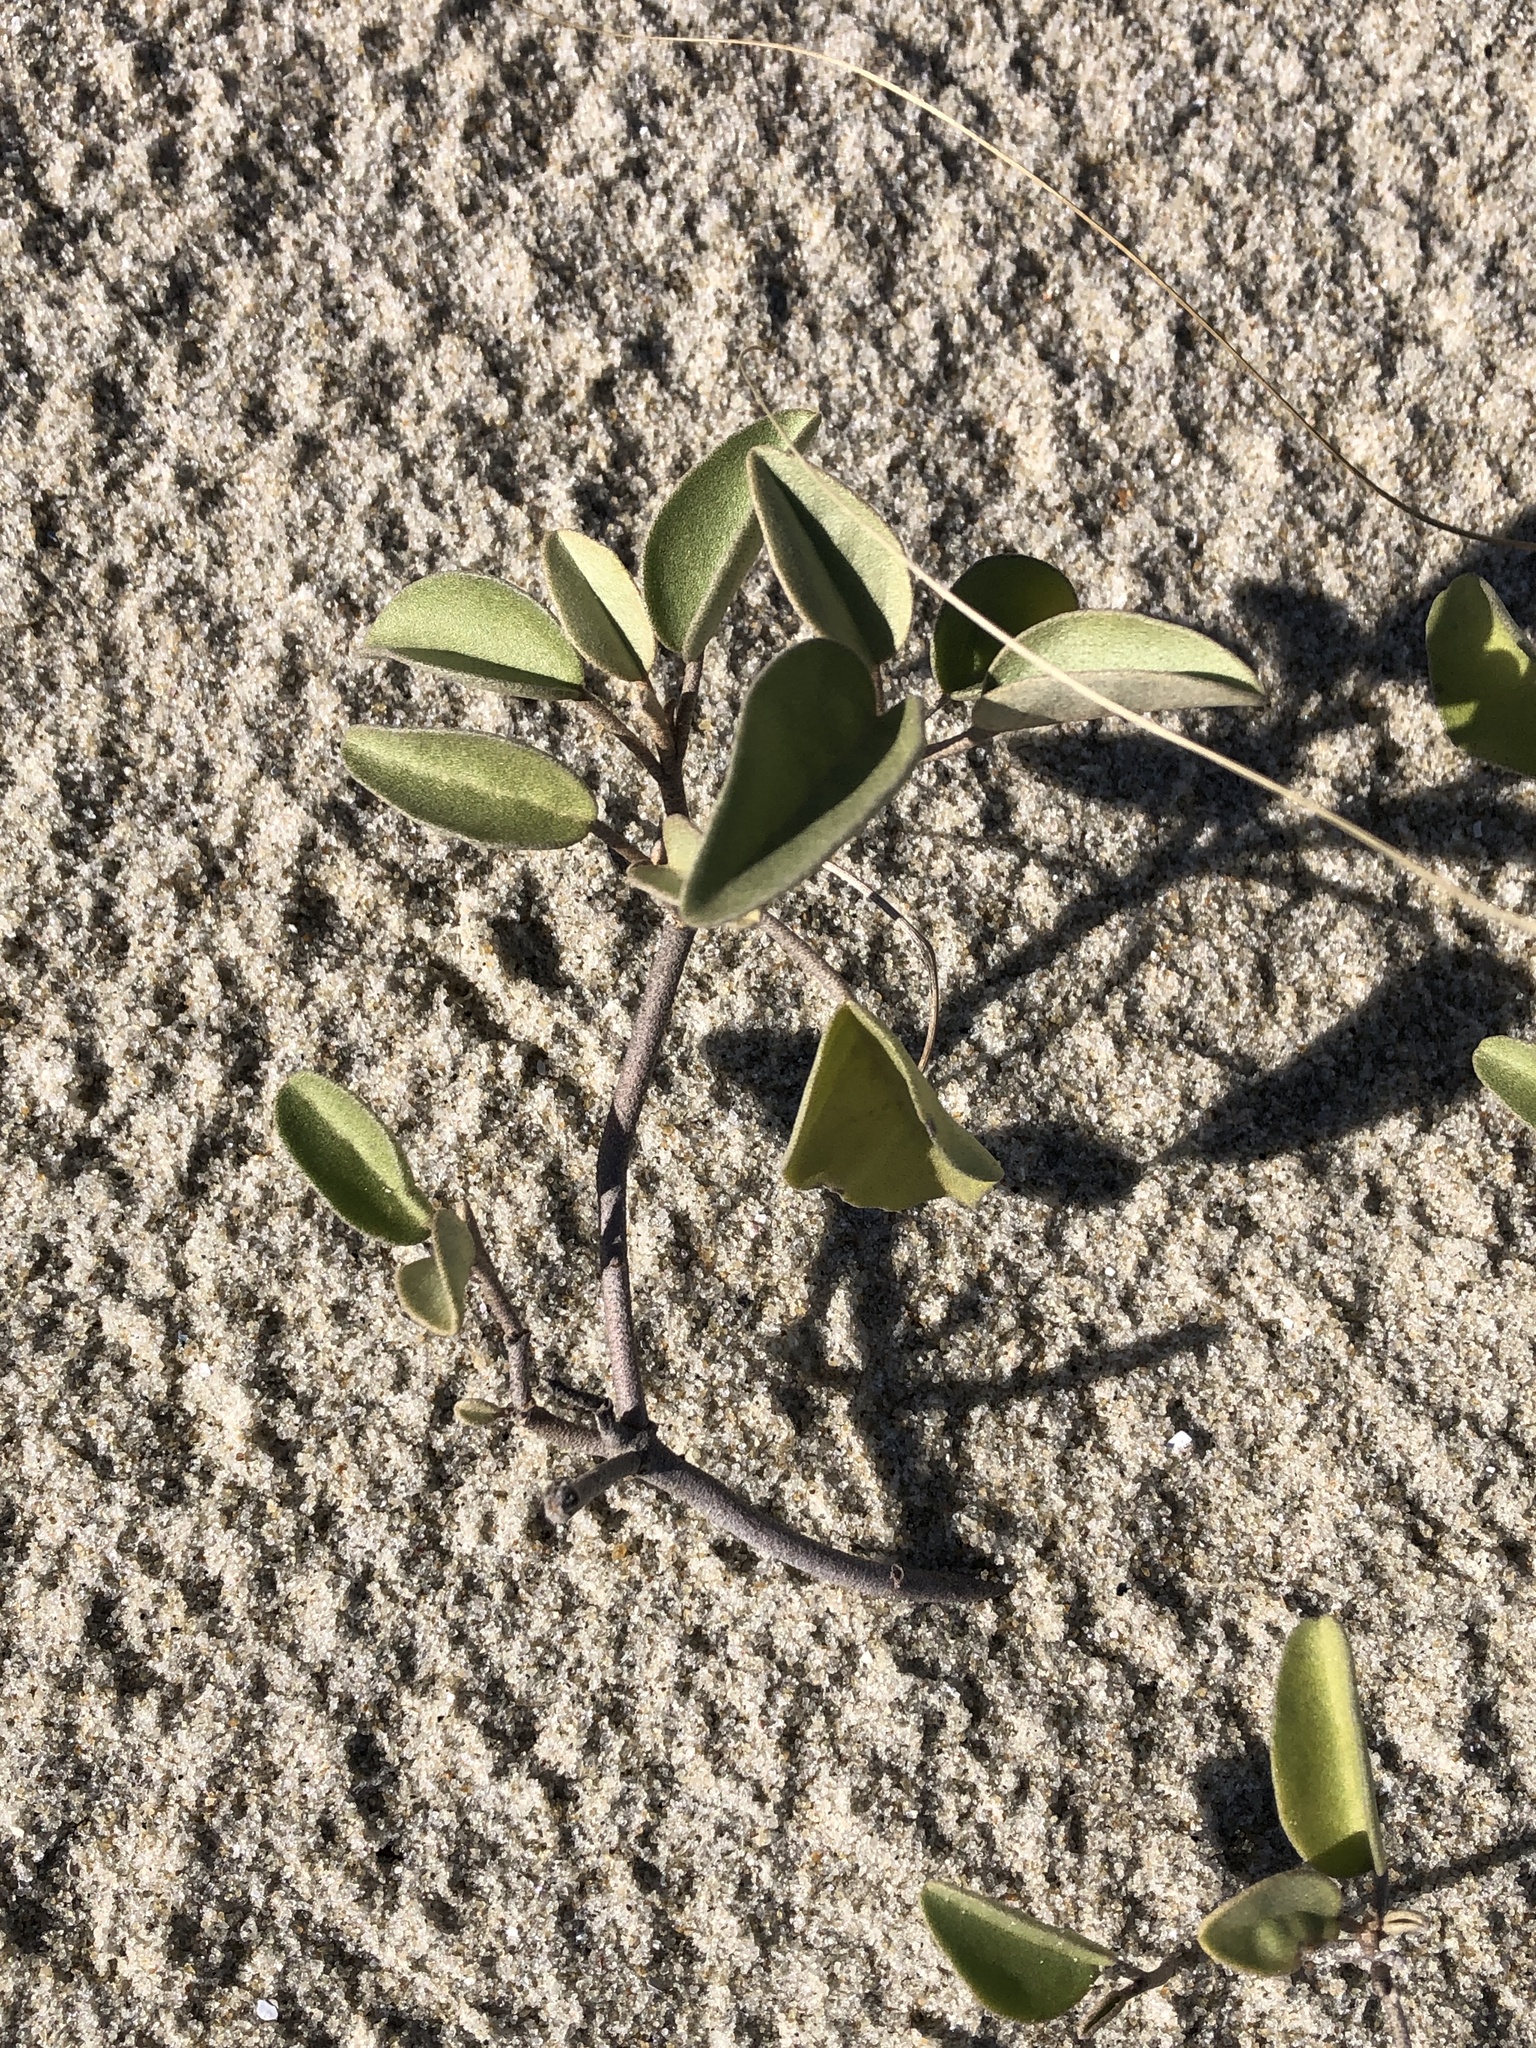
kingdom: Plantae
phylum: Tracheophyta
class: Magnoliopsida
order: Malpighiales
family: Euphorbiaceae
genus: Croton
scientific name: Croton punctatus
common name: Beach-tea
